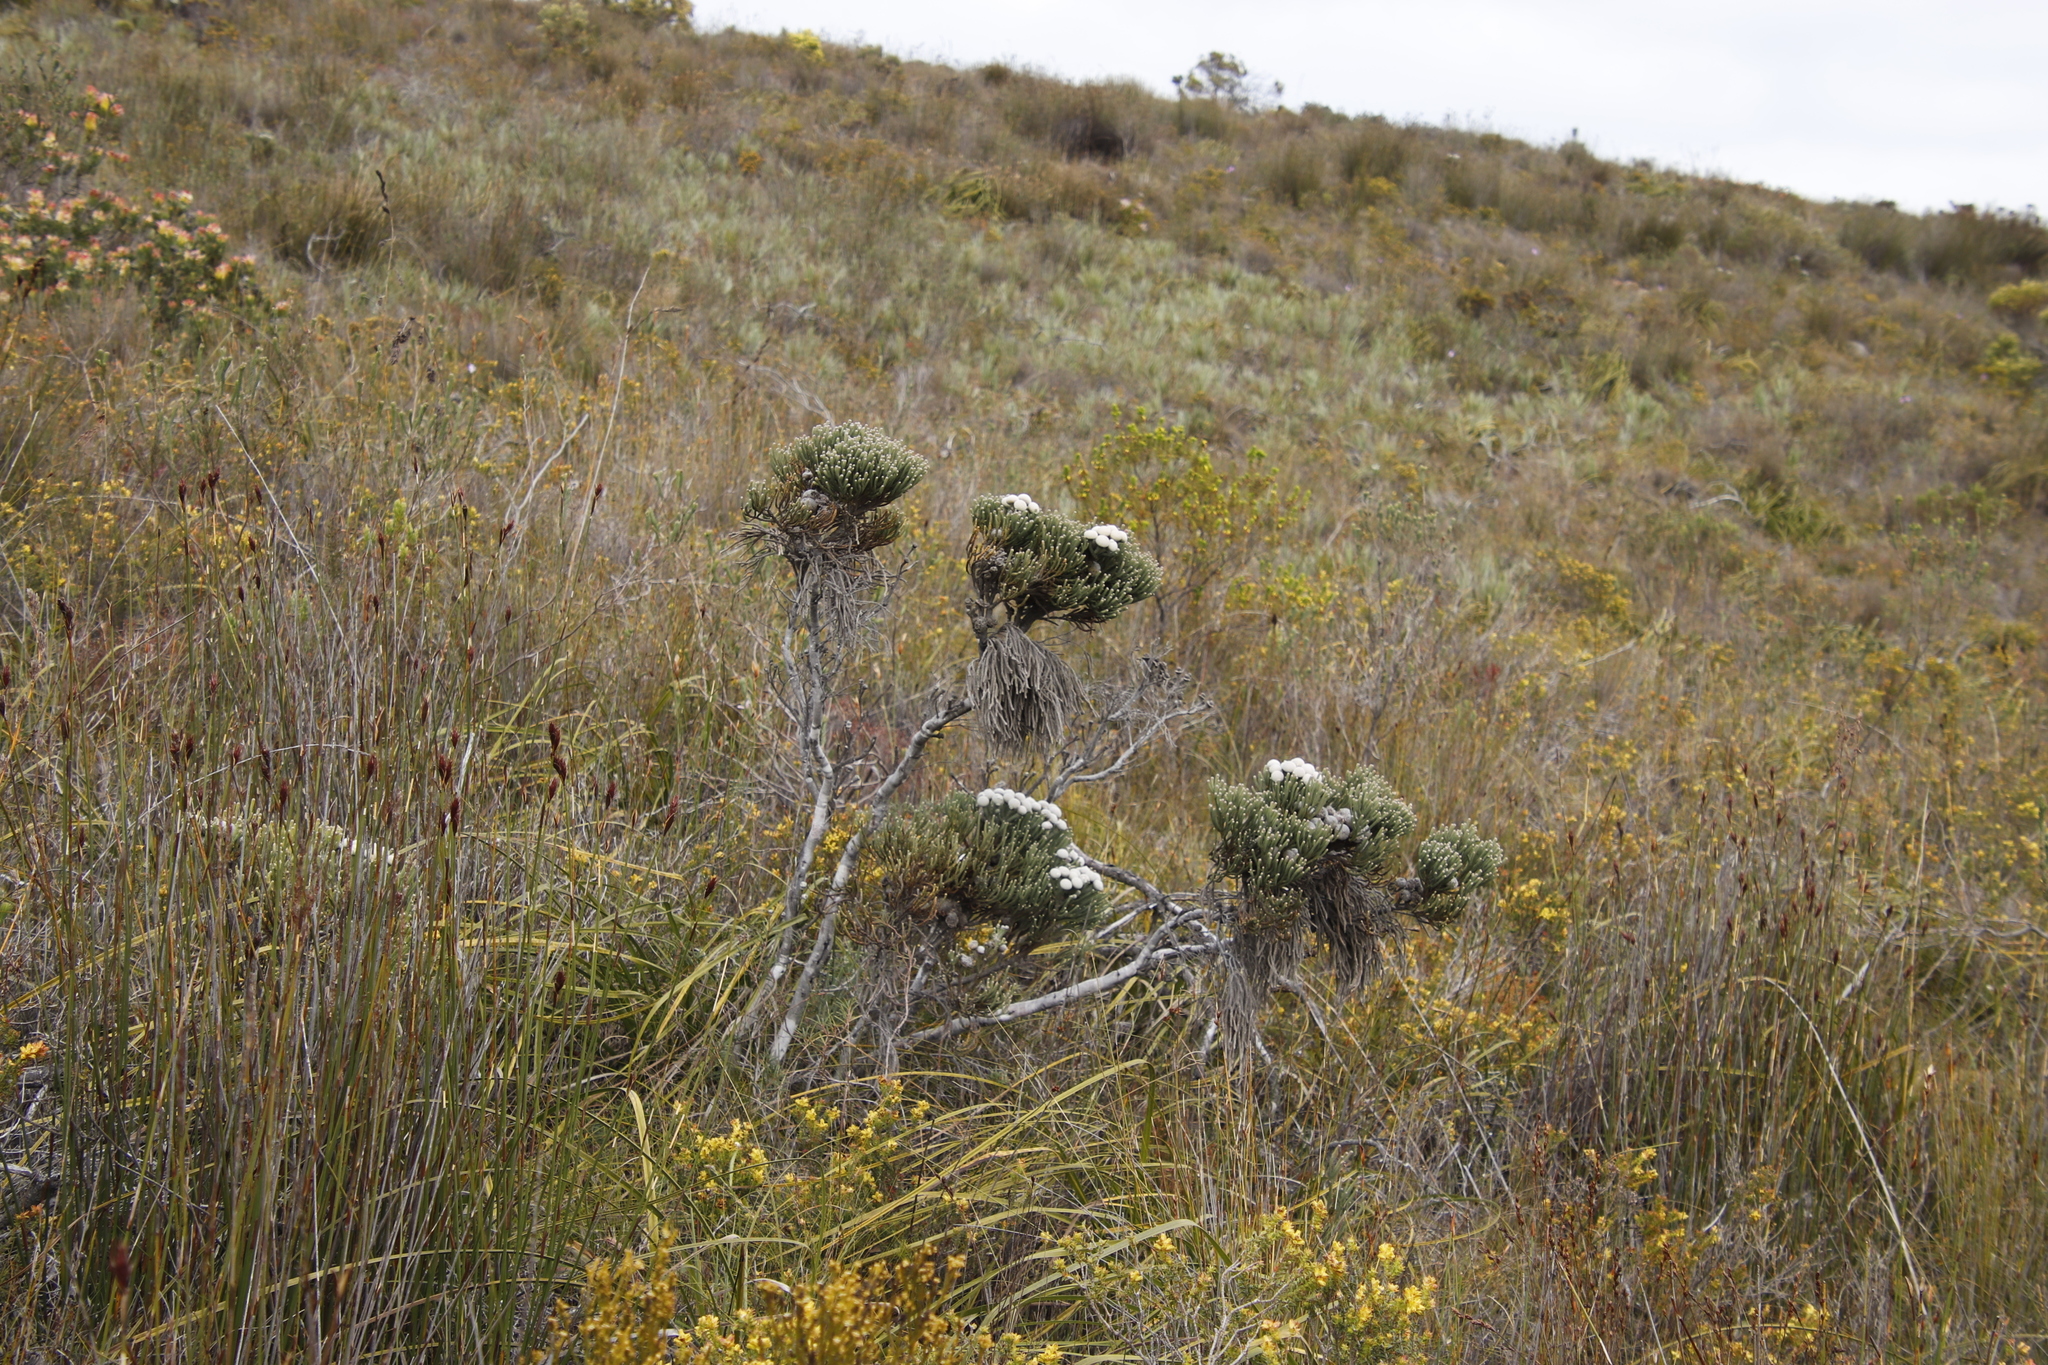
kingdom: Plantae
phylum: Tracheophyta
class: Magnoliopsida
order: Bruniales
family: Bruniaceae
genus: Brunia
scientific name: Brunia laevis
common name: Silver brunia
